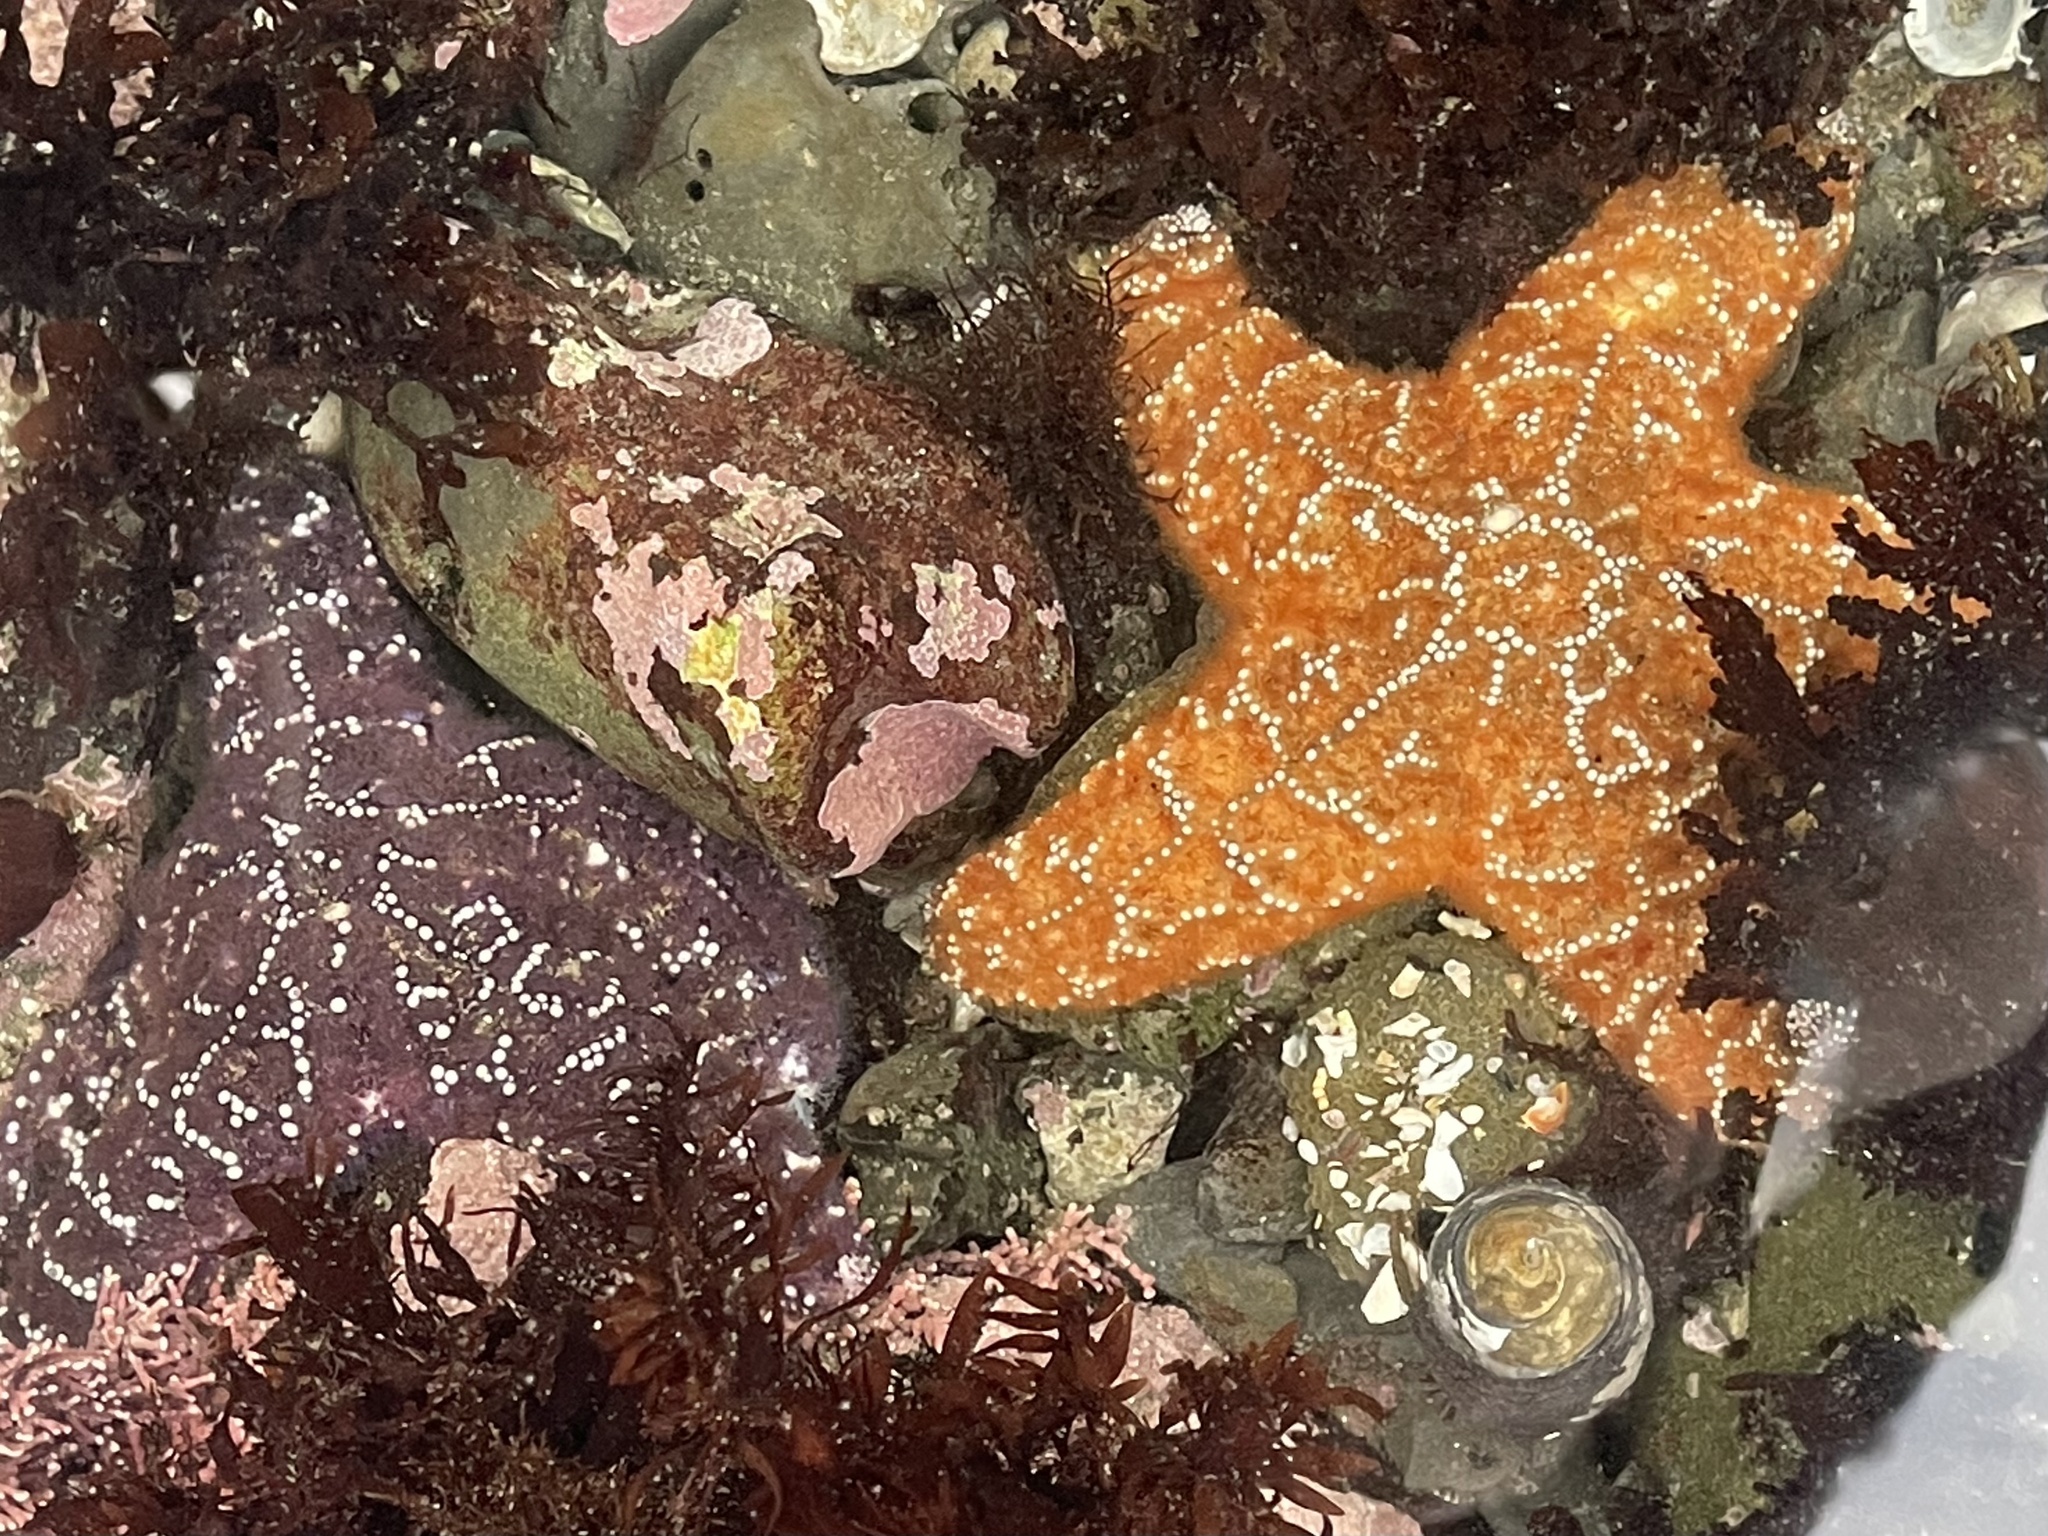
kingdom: Animalia
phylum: Echinodermata
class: Asteroidea
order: Forcipulatida
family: Asteriidae
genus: Pisaster
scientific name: Pisaster ochraceus
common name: Ochre stars
